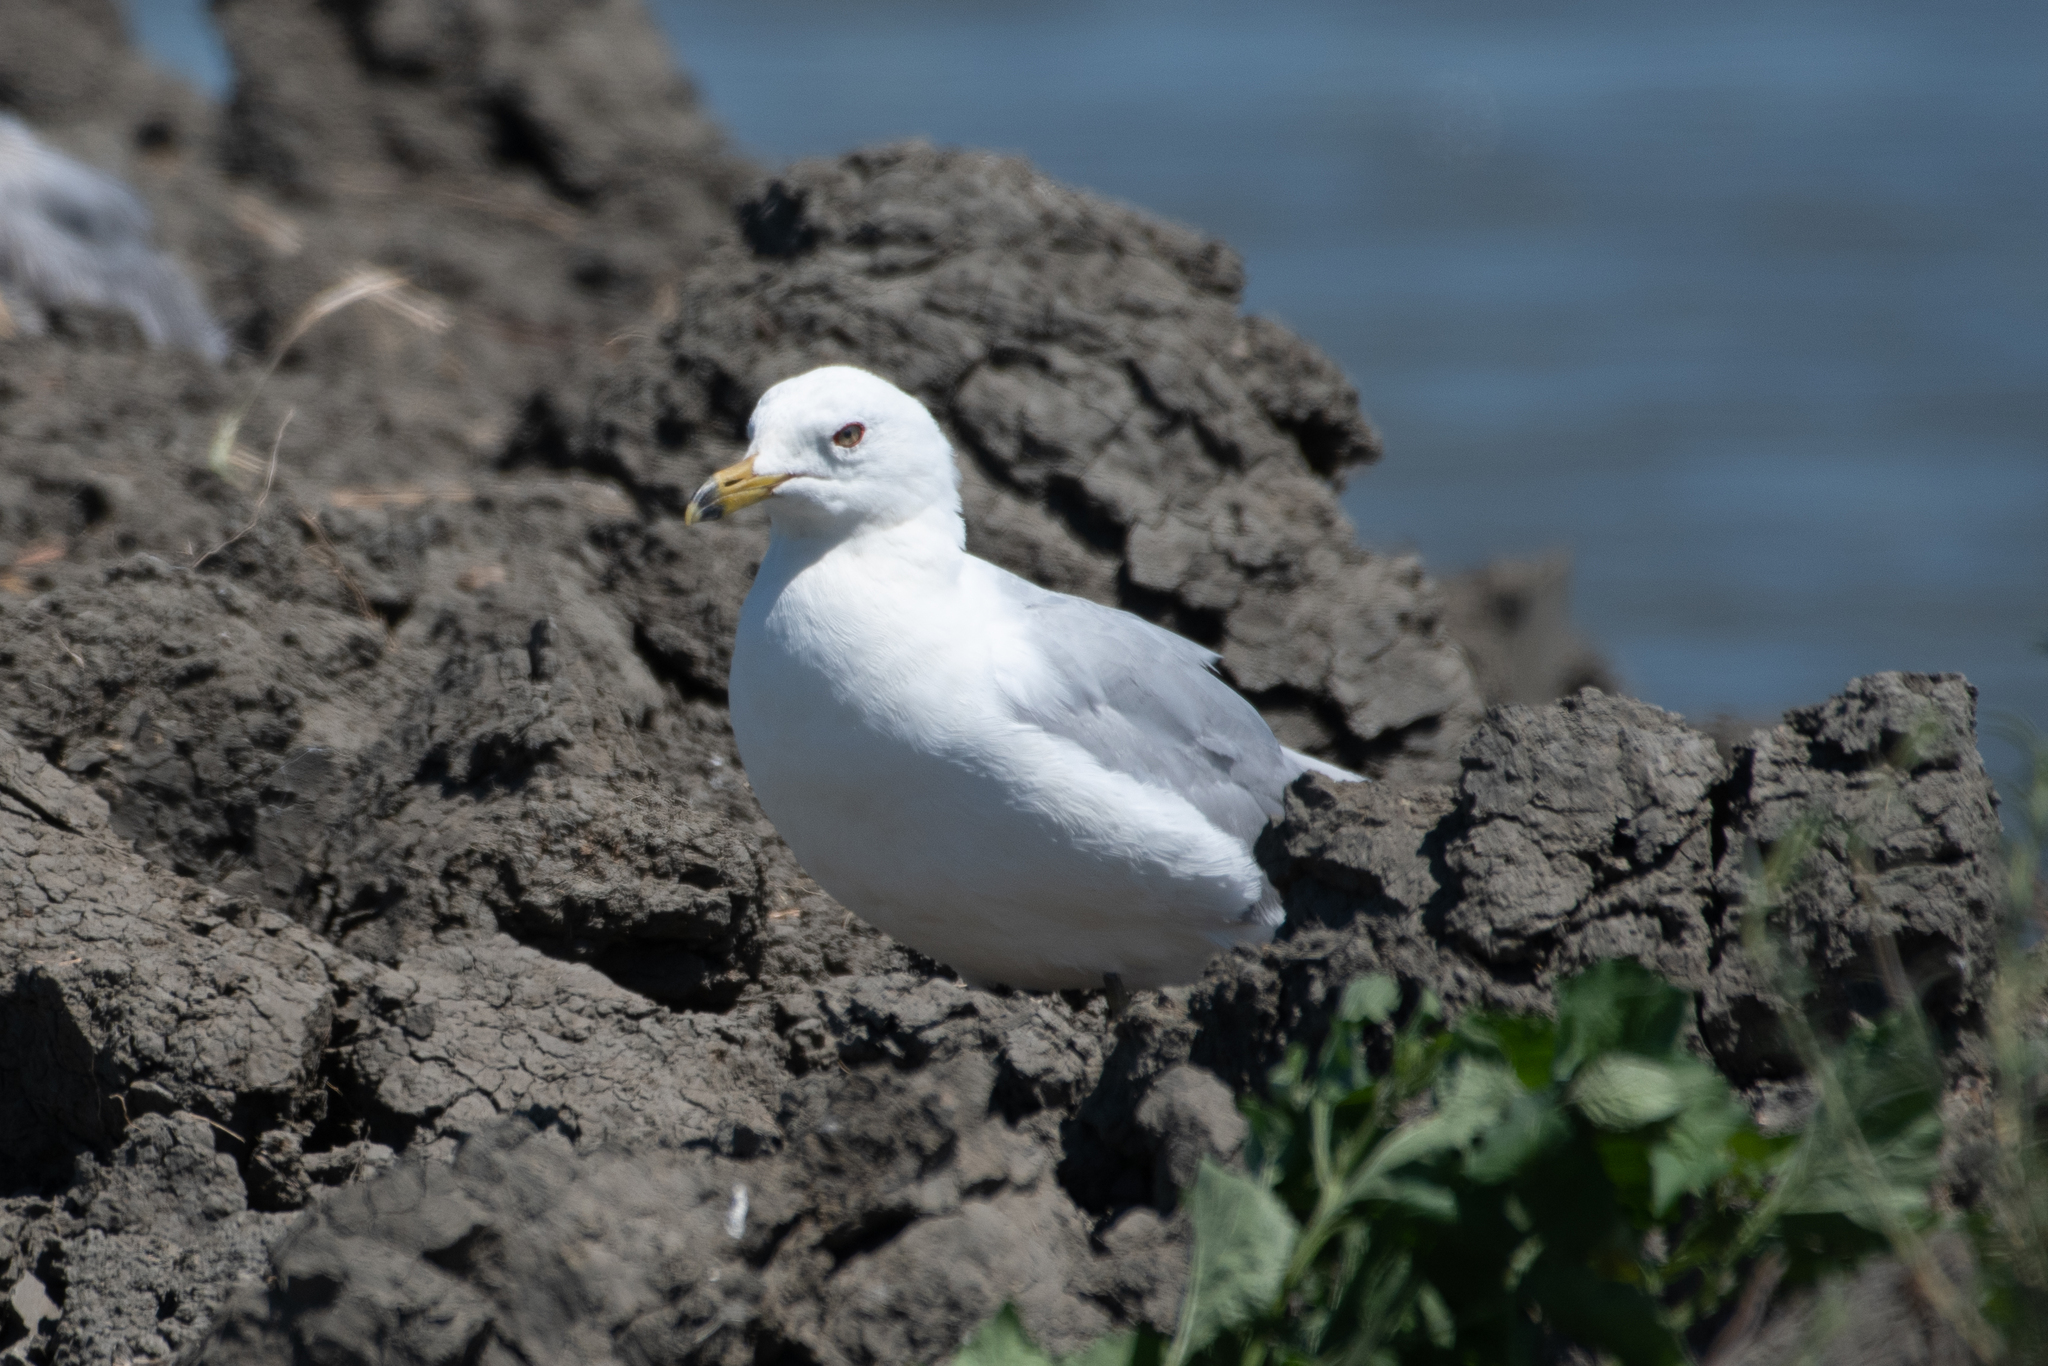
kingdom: Animalia
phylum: Chordata
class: Aves
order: Charadriiformes
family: Laridae
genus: Larus
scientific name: Larus delawarensis
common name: Ring-billed gull
